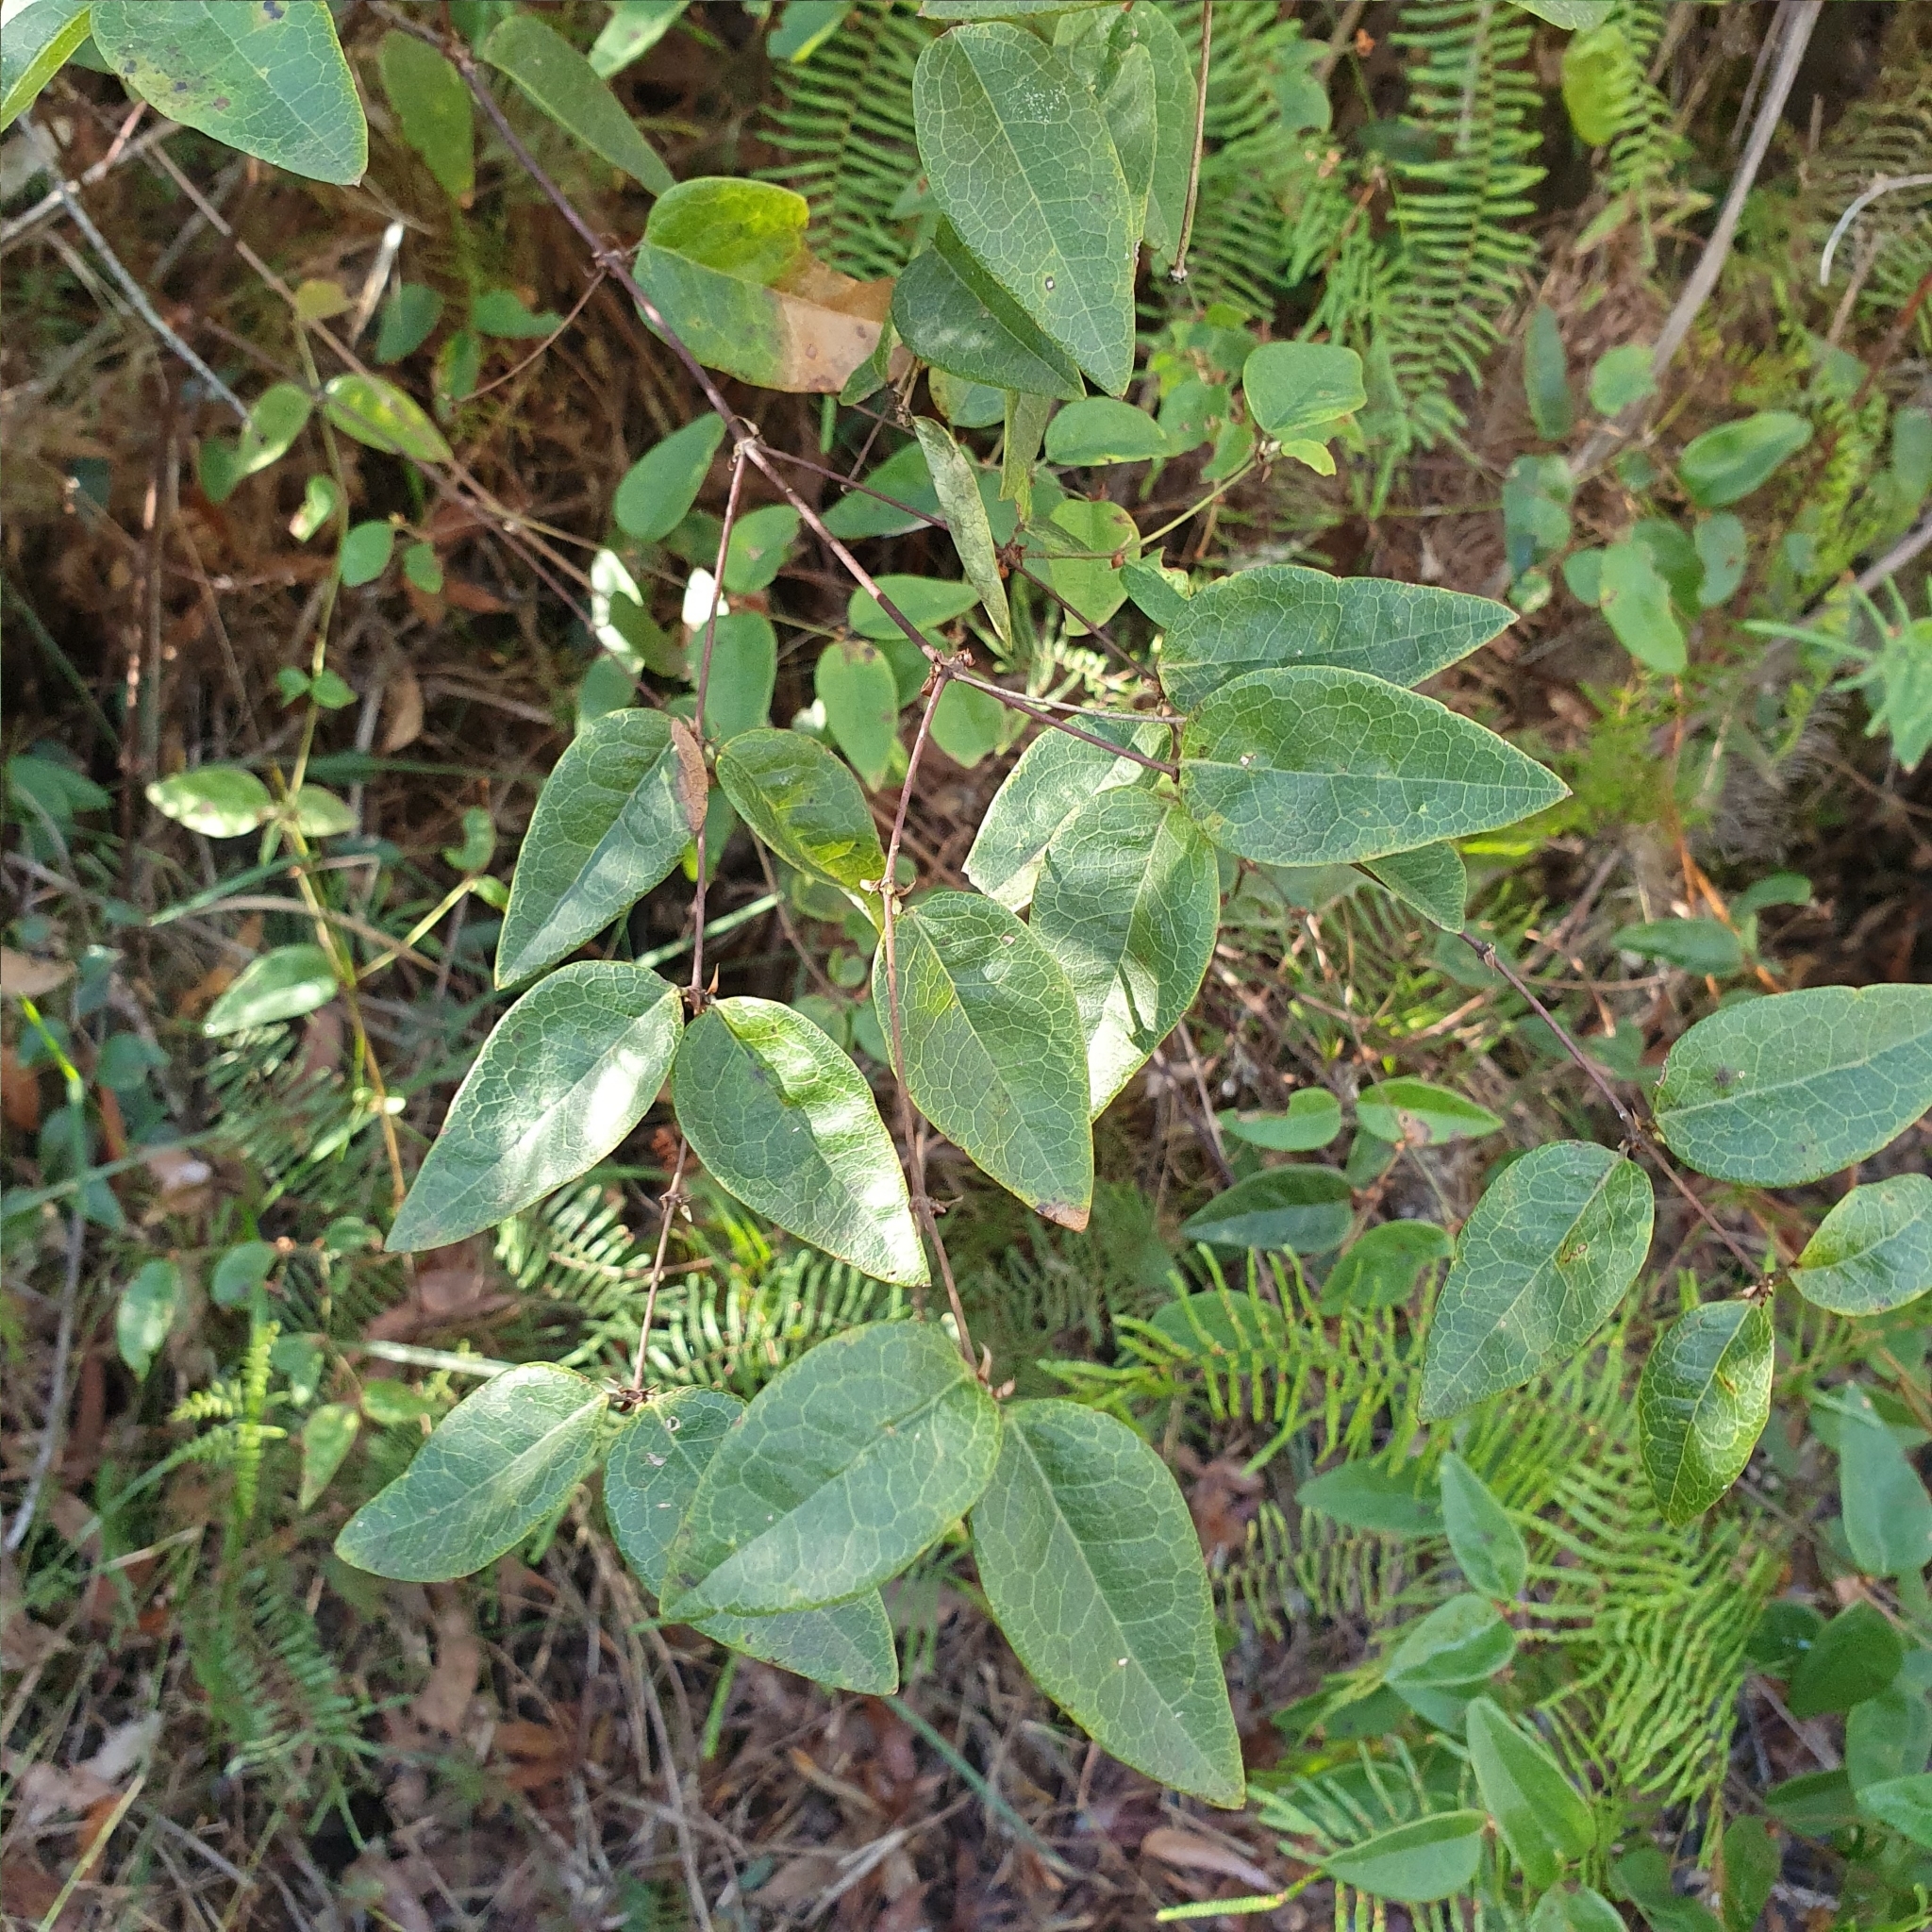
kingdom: Plantae
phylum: Tracheophyta
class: Magnoliopsida
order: Fabales
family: Fabaceae
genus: Platylobium
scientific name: Platylobium formosum
